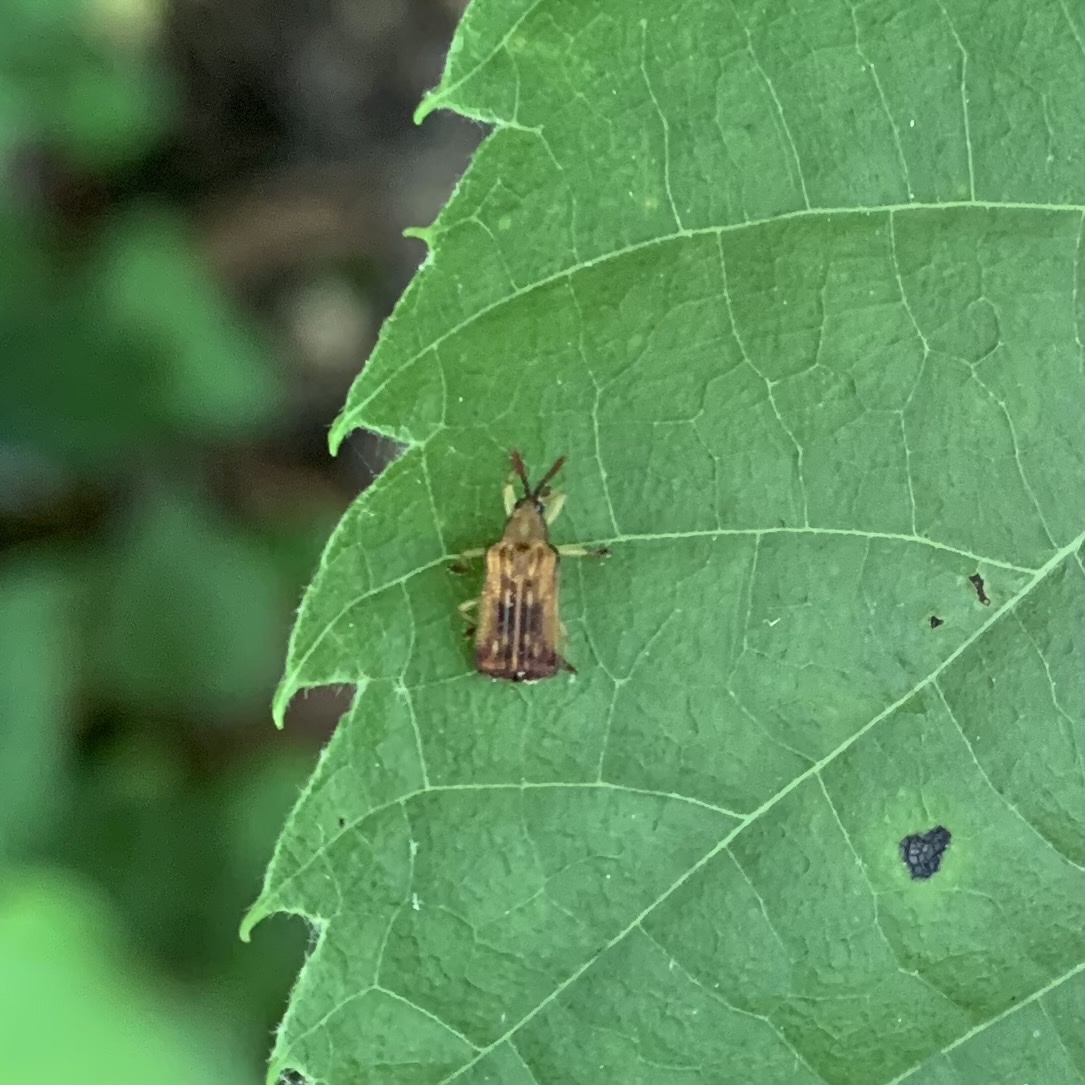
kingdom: Animalia
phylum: Arthropoda
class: Insecta
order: Coleoptera
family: Chrysomelidae
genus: Baliosus
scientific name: Baliosus nervosus
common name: Basswood leaf miner
